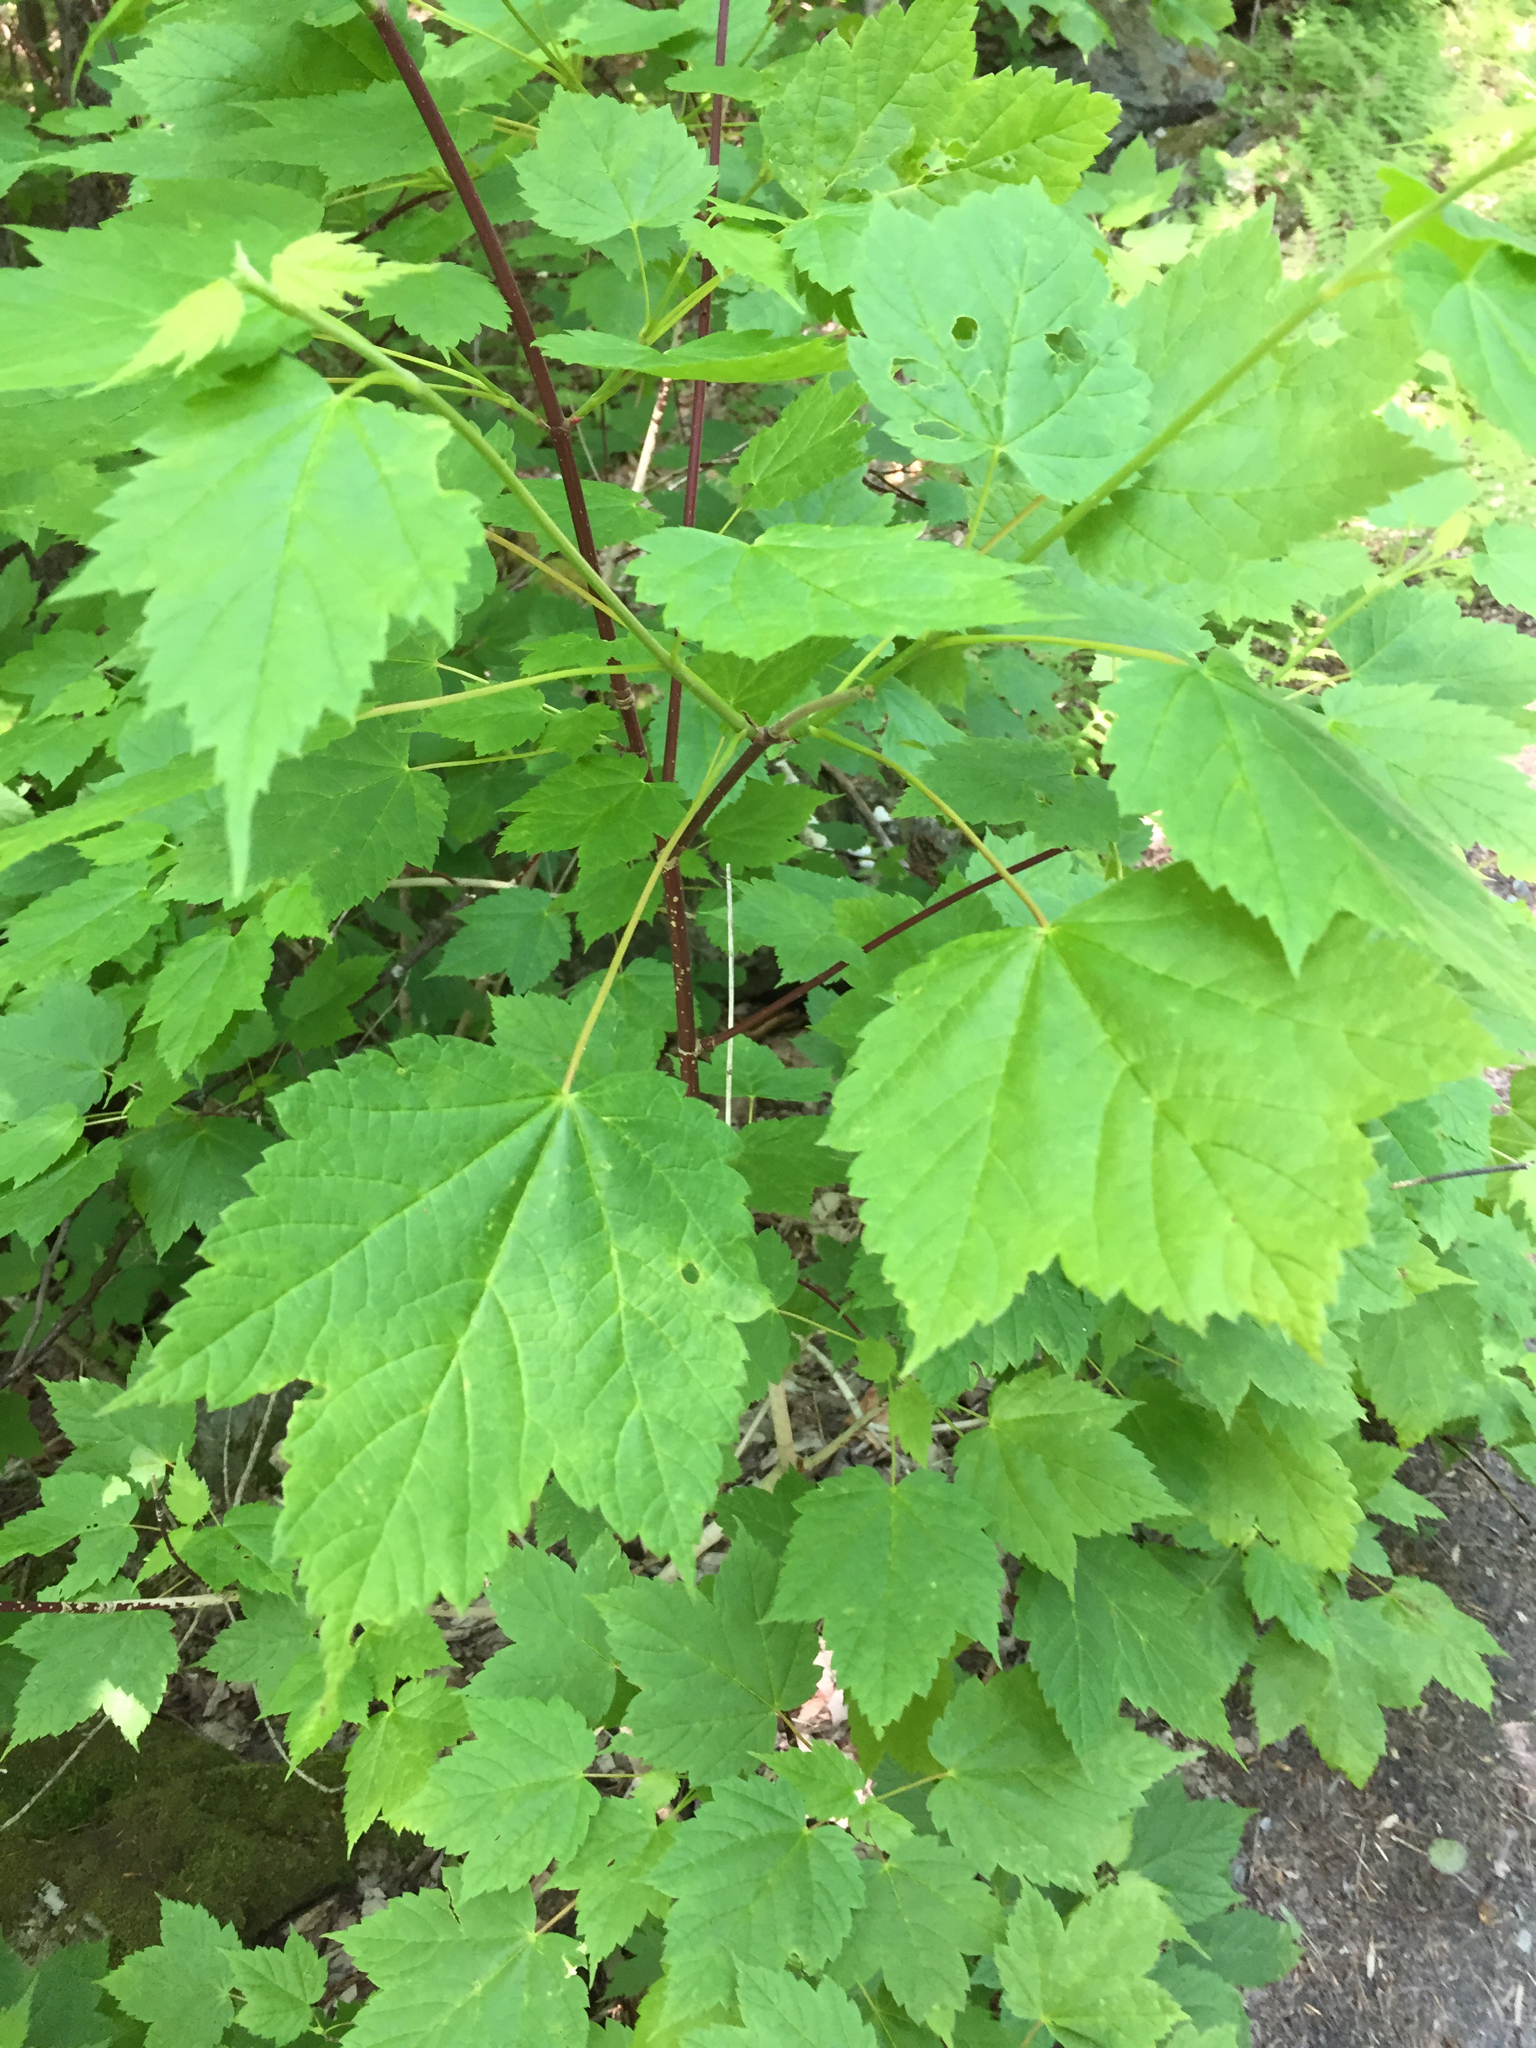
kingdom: Plantae
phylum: Tracheophyta
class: Magnoliopsida
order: Sapindales
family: Sapindaceae
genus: Acer
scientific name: Acer spicatum
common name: Mountain maple
